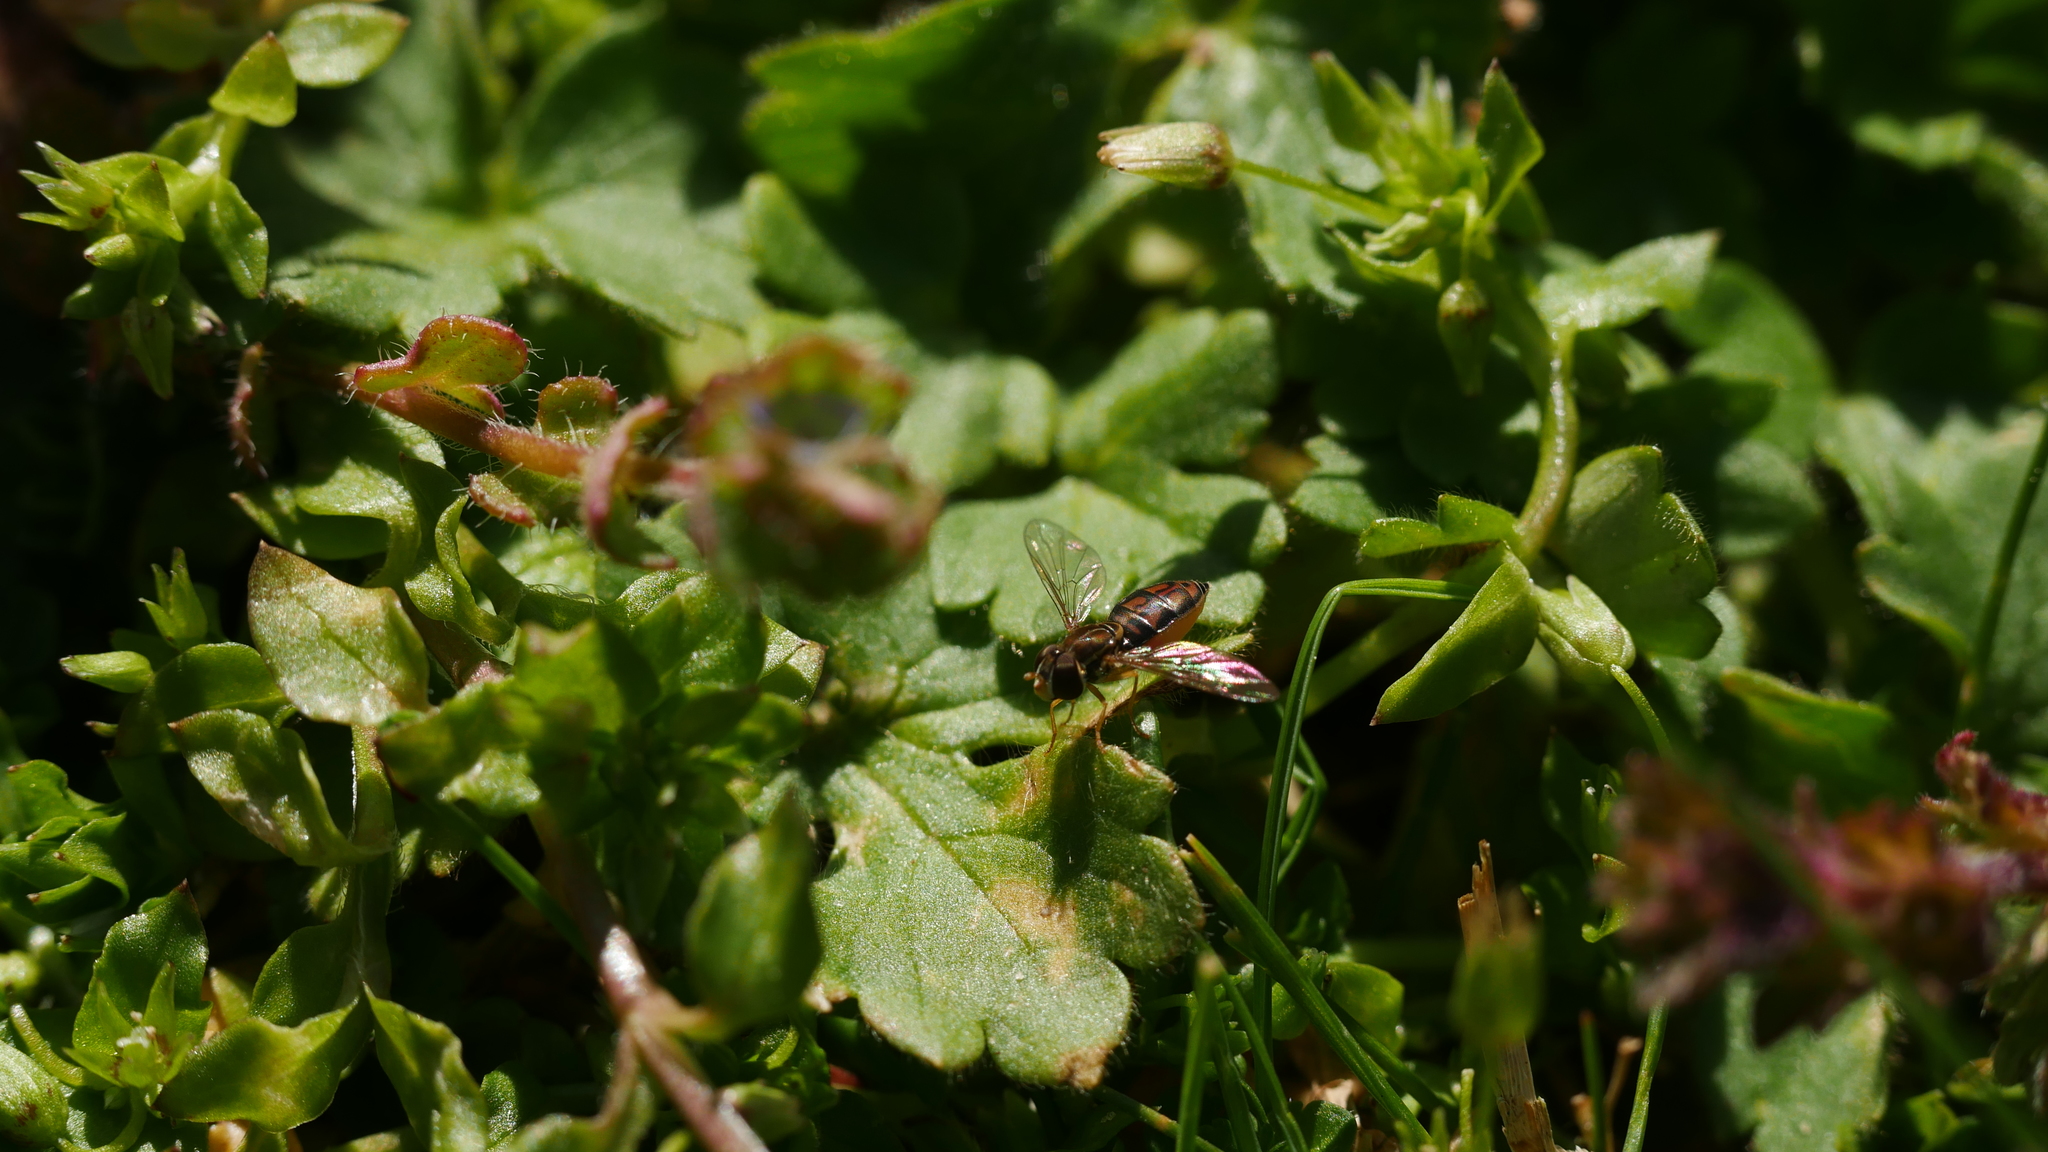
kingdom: Animalia
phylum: Arthropoda
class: Insecta
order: Diptera
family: Syrphidae
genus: Toxomerus
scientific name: Toxomerus marginatus
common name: Syrphid fly
